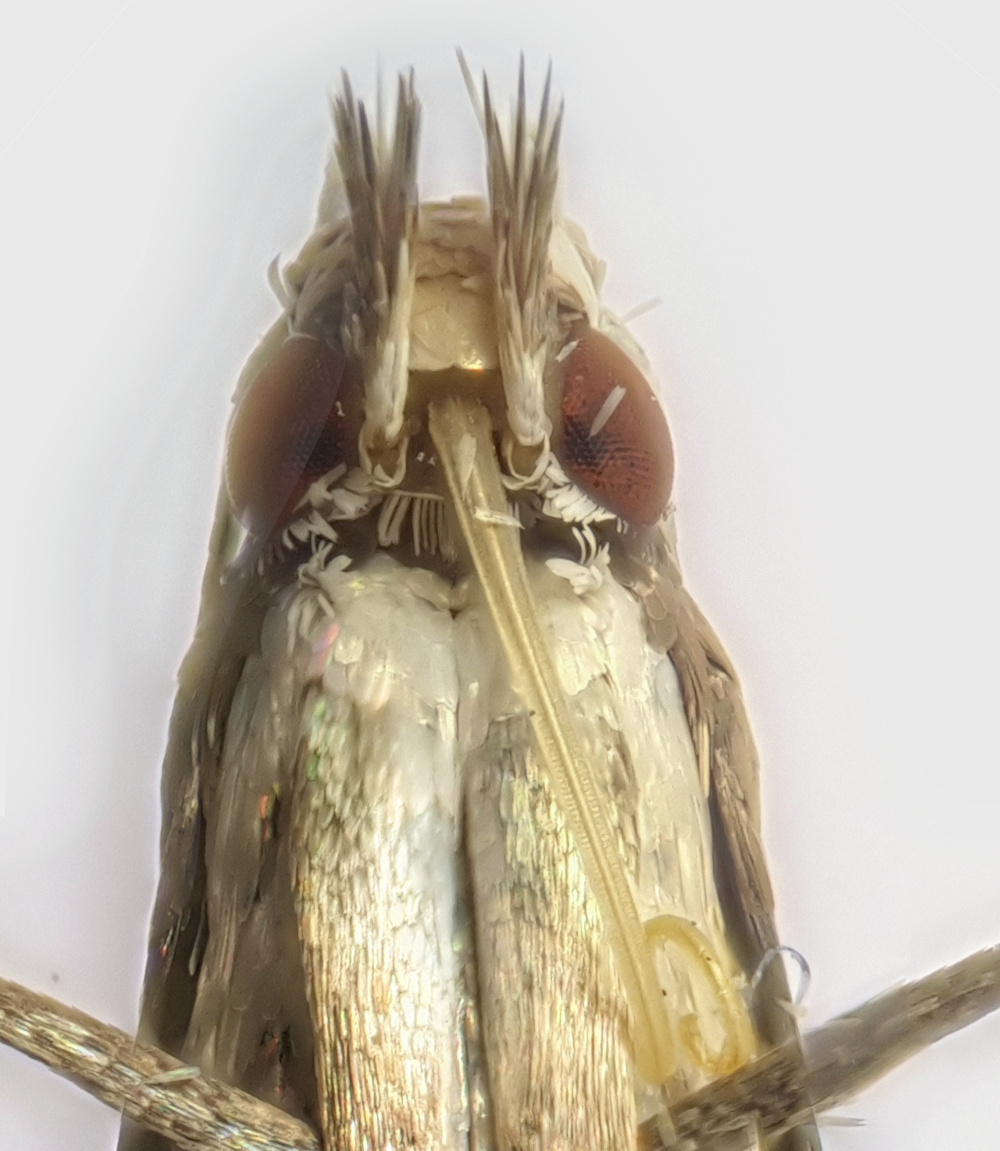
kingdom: Animalia
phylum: Arthropoda
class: Insecta
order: Lepidoptera
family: Gracillariidae
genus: Acrocercops
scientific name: Acrocercops brongniardella
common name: Brown oak slender
